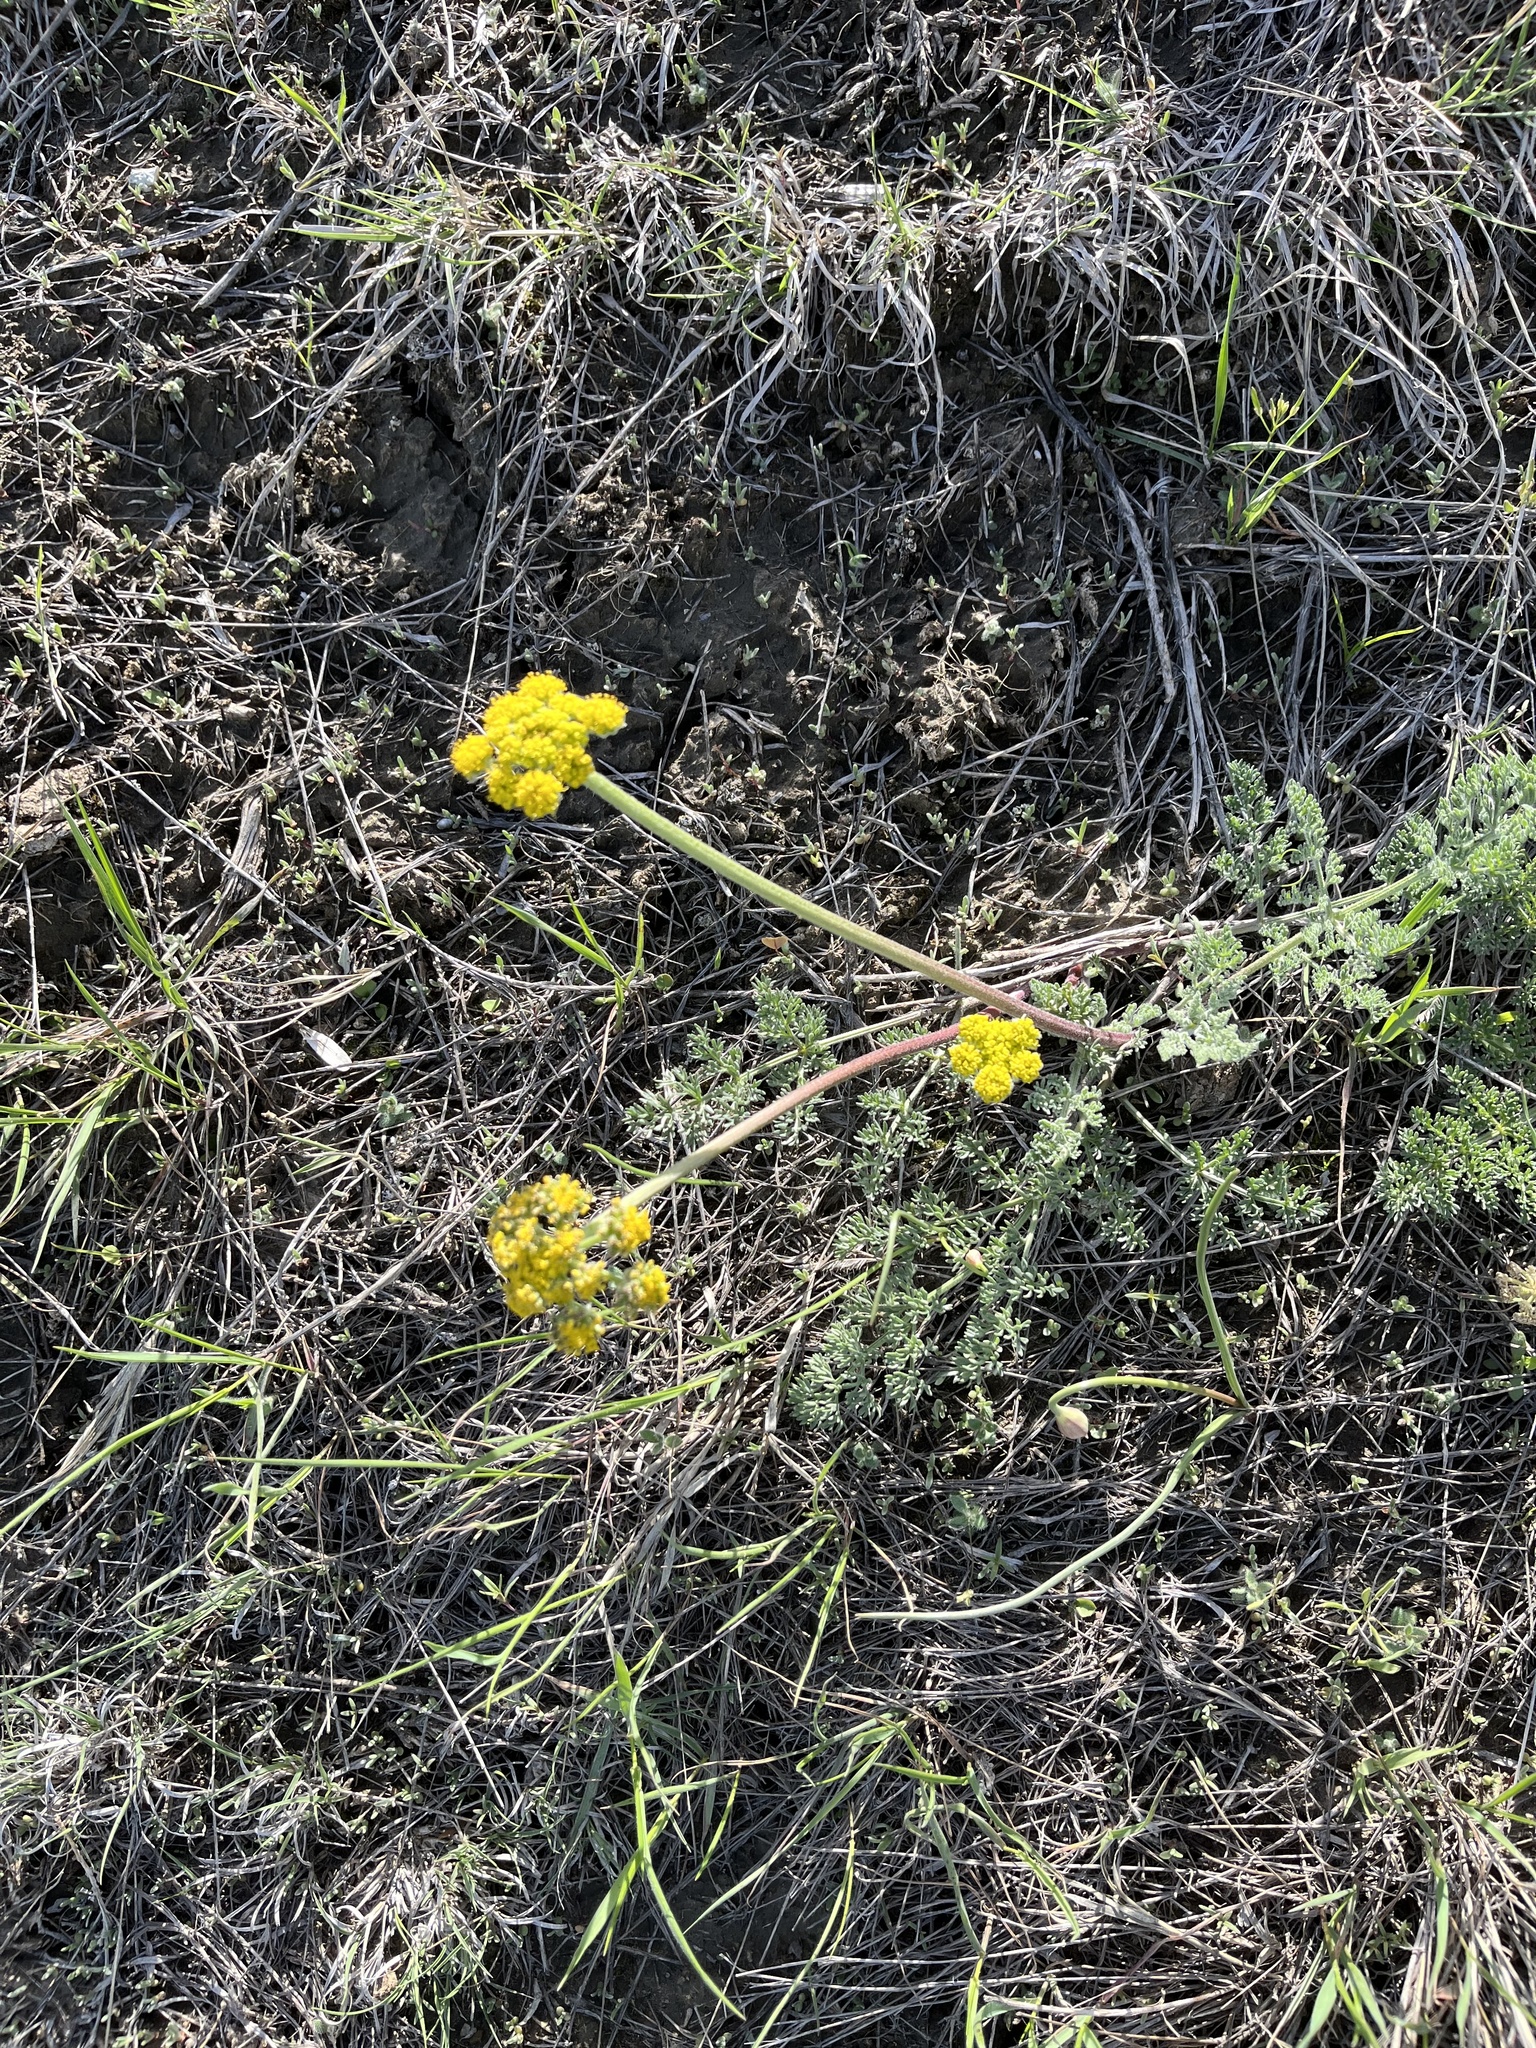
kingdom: Plantae
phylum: Tracheophyta
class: Magnoliopsida
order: Apiales
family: Apiaceae
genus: Lomatium
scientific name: Lomatium foeniculaceum
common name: Desert-parsley
